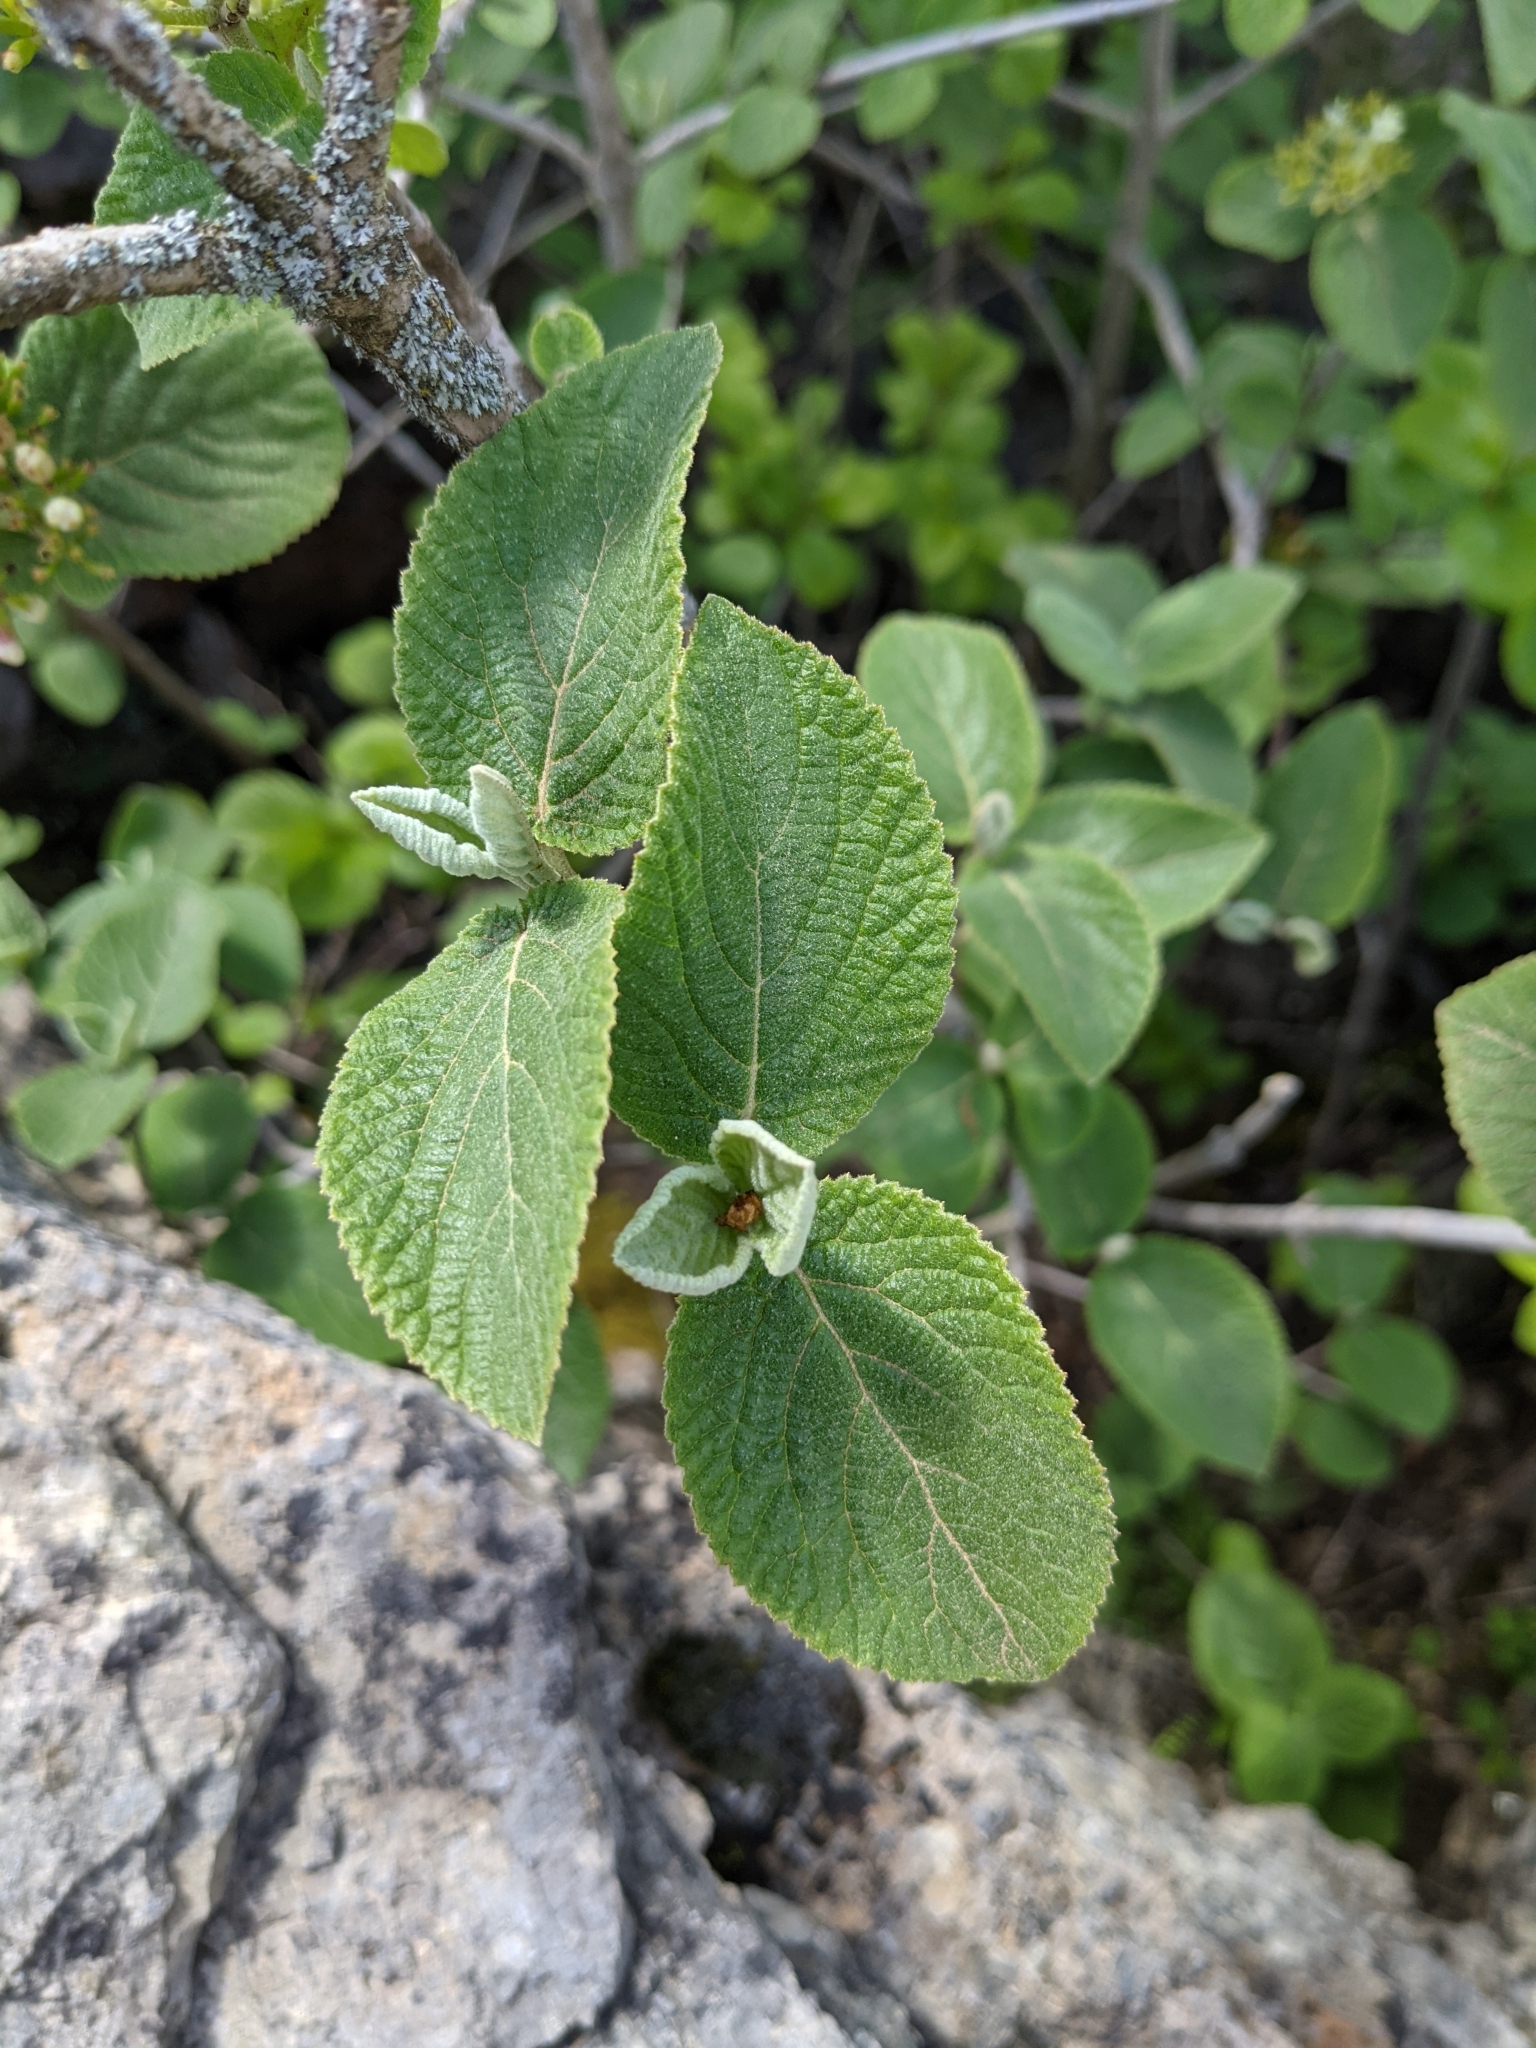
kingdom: Plantae
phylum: Tracheophyta
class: Magnoliopsida
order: Dipsacales
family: Viburnaceae
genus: Viburnum
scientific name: Viburnum lantana
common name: Wayfaring tree
